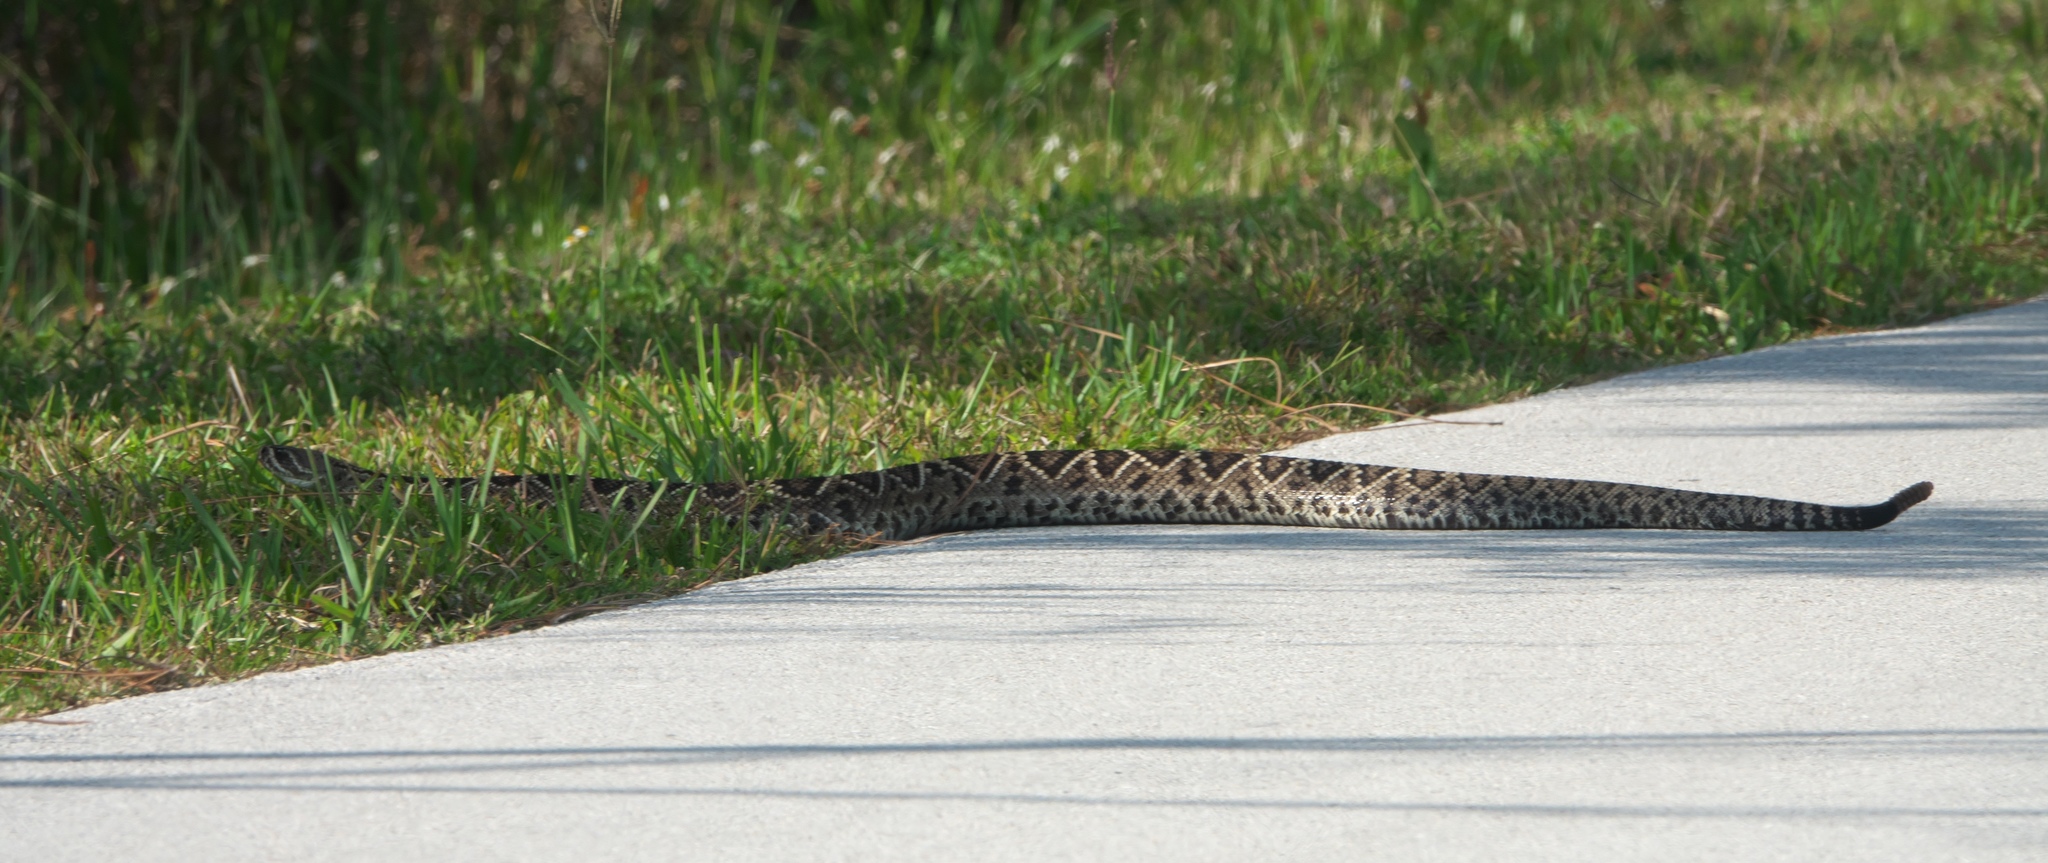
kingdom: Animalia
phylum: Chordata
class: Squamata
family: Viperidae
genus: Crotalus
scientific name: Crotalus adamanteus
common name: Eastern diamondback rattlesnake
